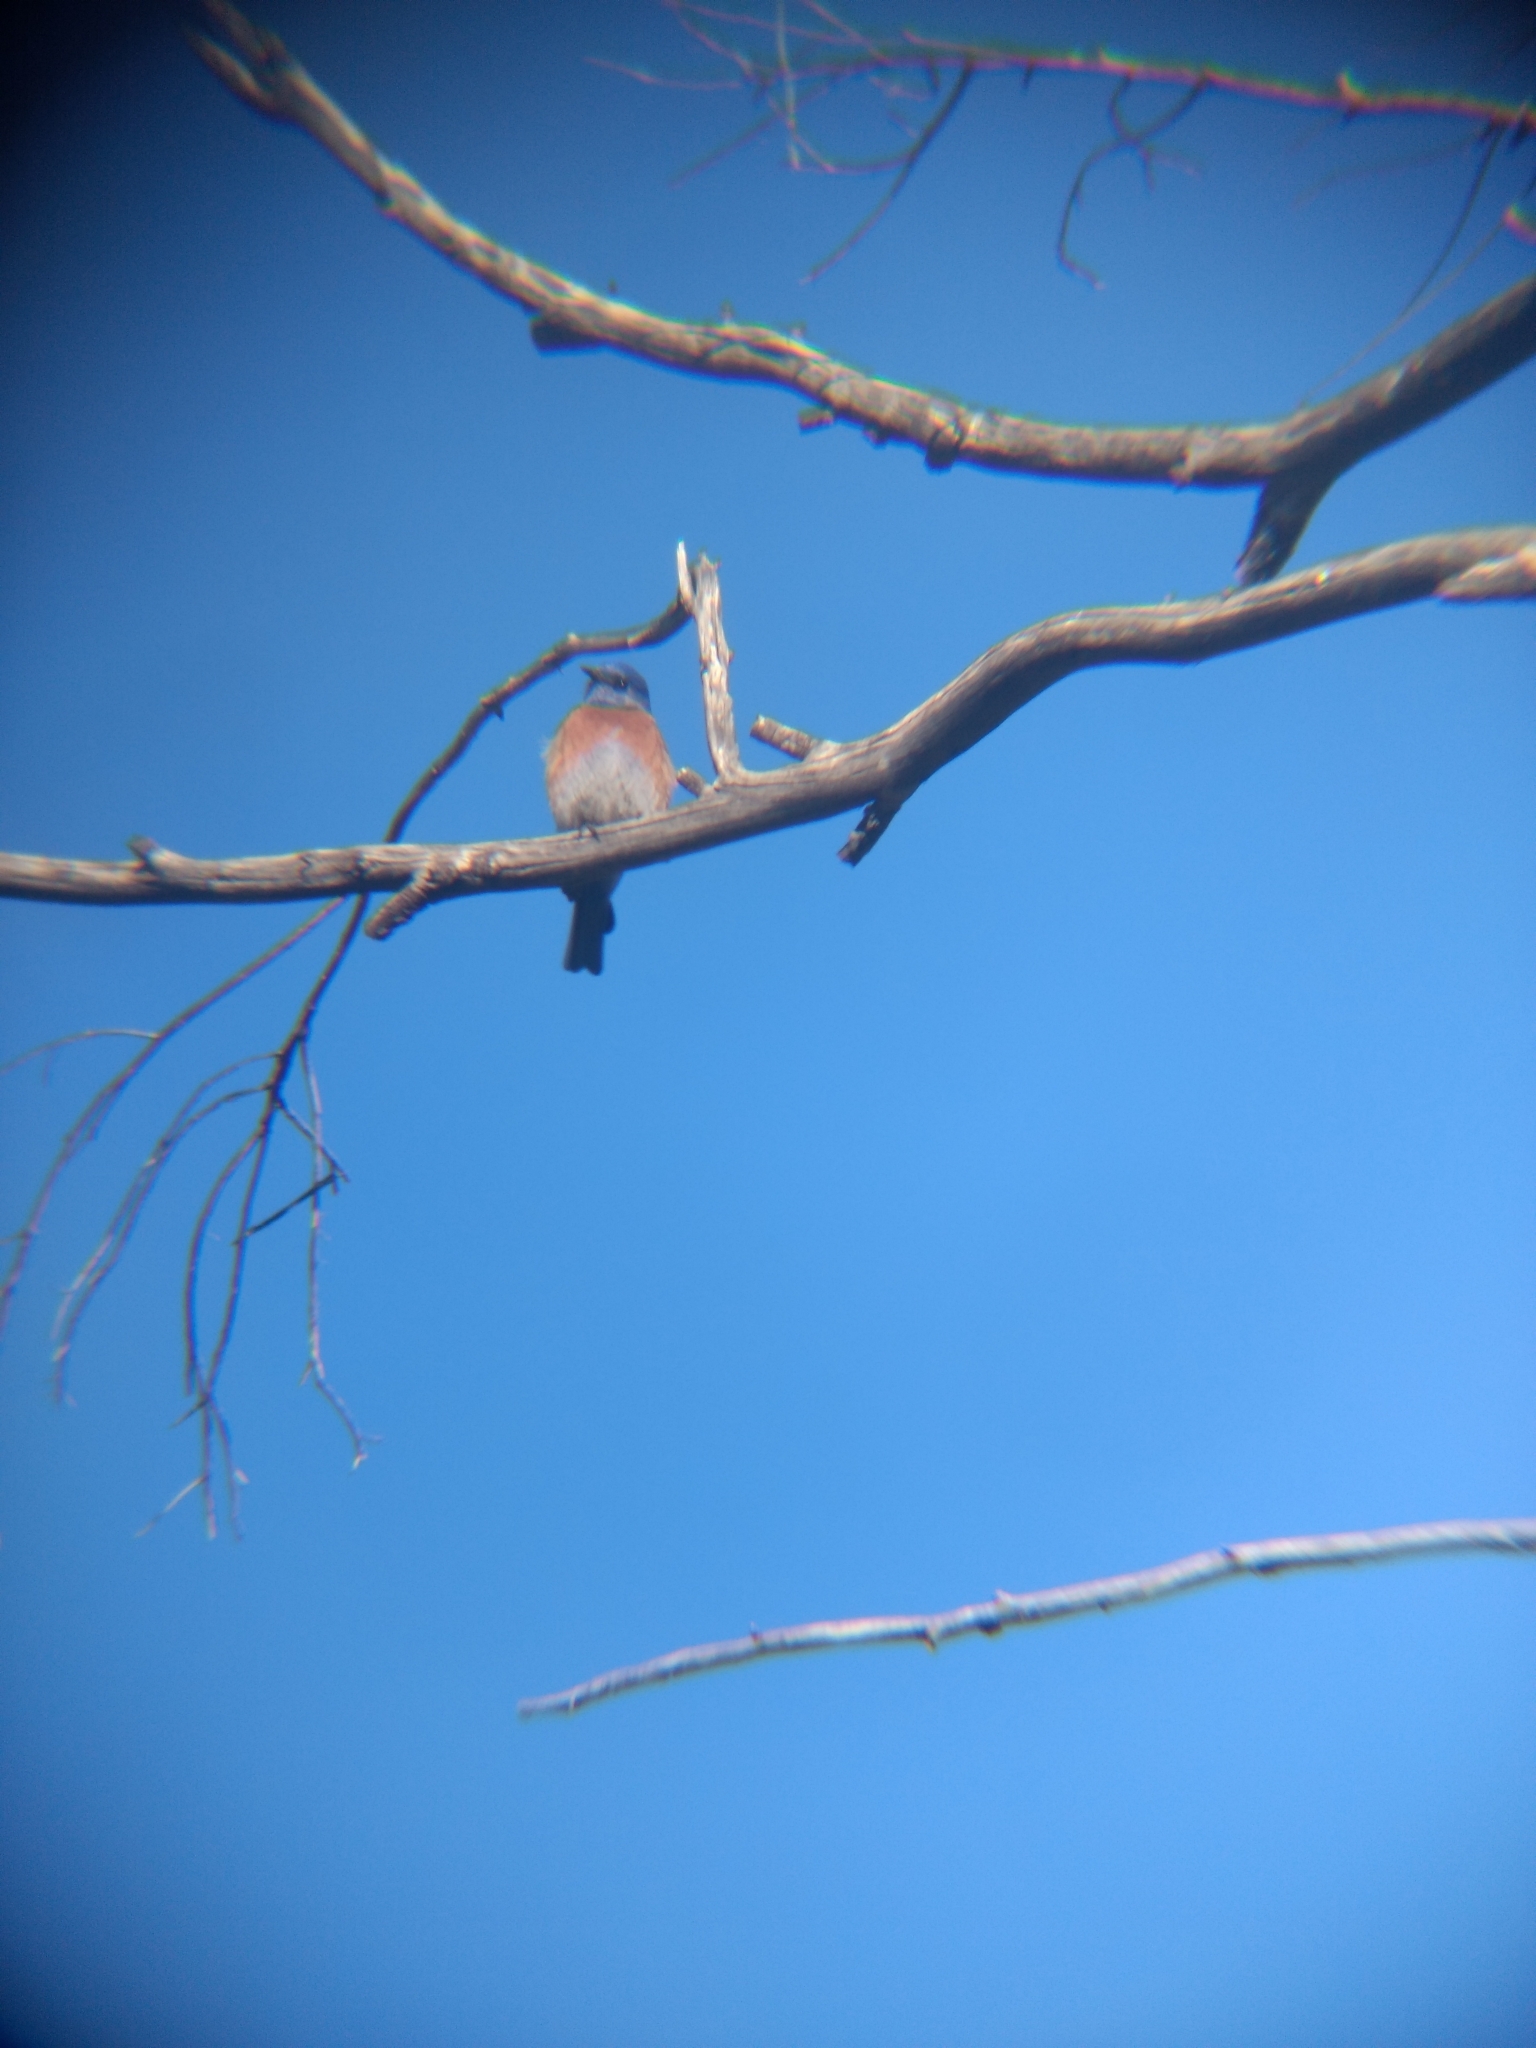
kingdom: Animalia
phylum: Chordata
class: Aves
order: Passeriformes
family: Turdidae
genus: Sialia
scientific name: Sialia mexicana
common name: Western bluebird
